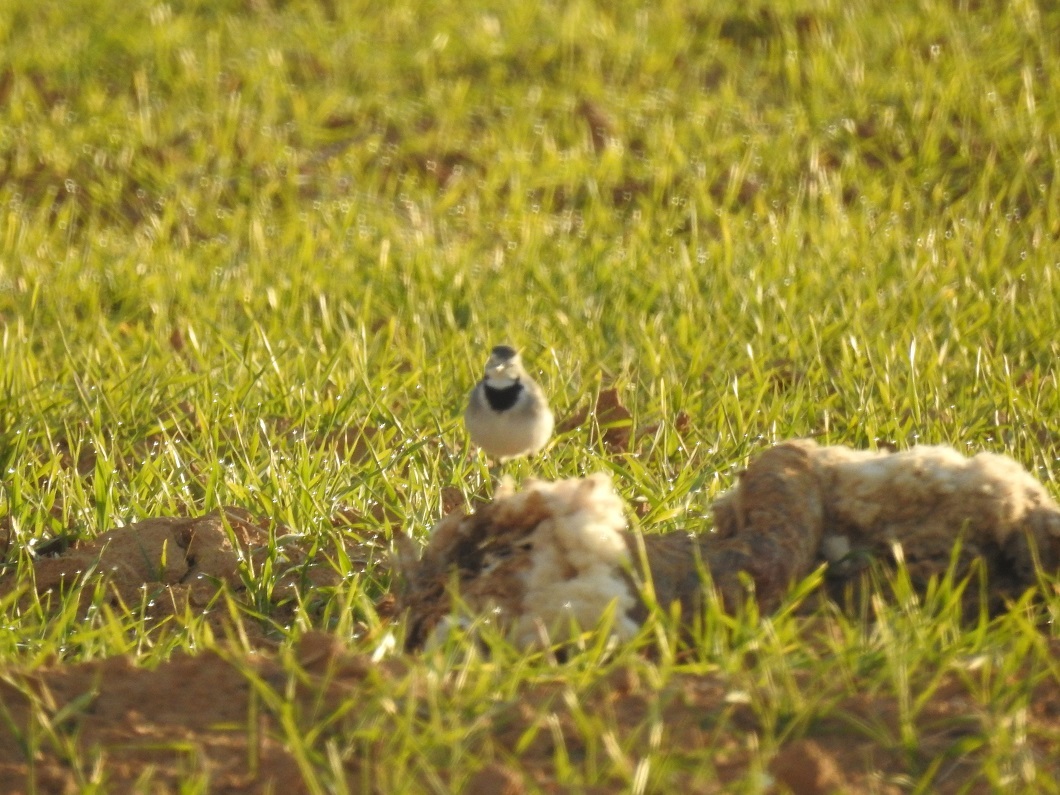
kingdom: Animalia
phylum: Chordata
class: Aves
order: Passeriformes
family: Motacillidae
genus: Motacilla
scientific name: Motacilla alba
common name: White wagtail
